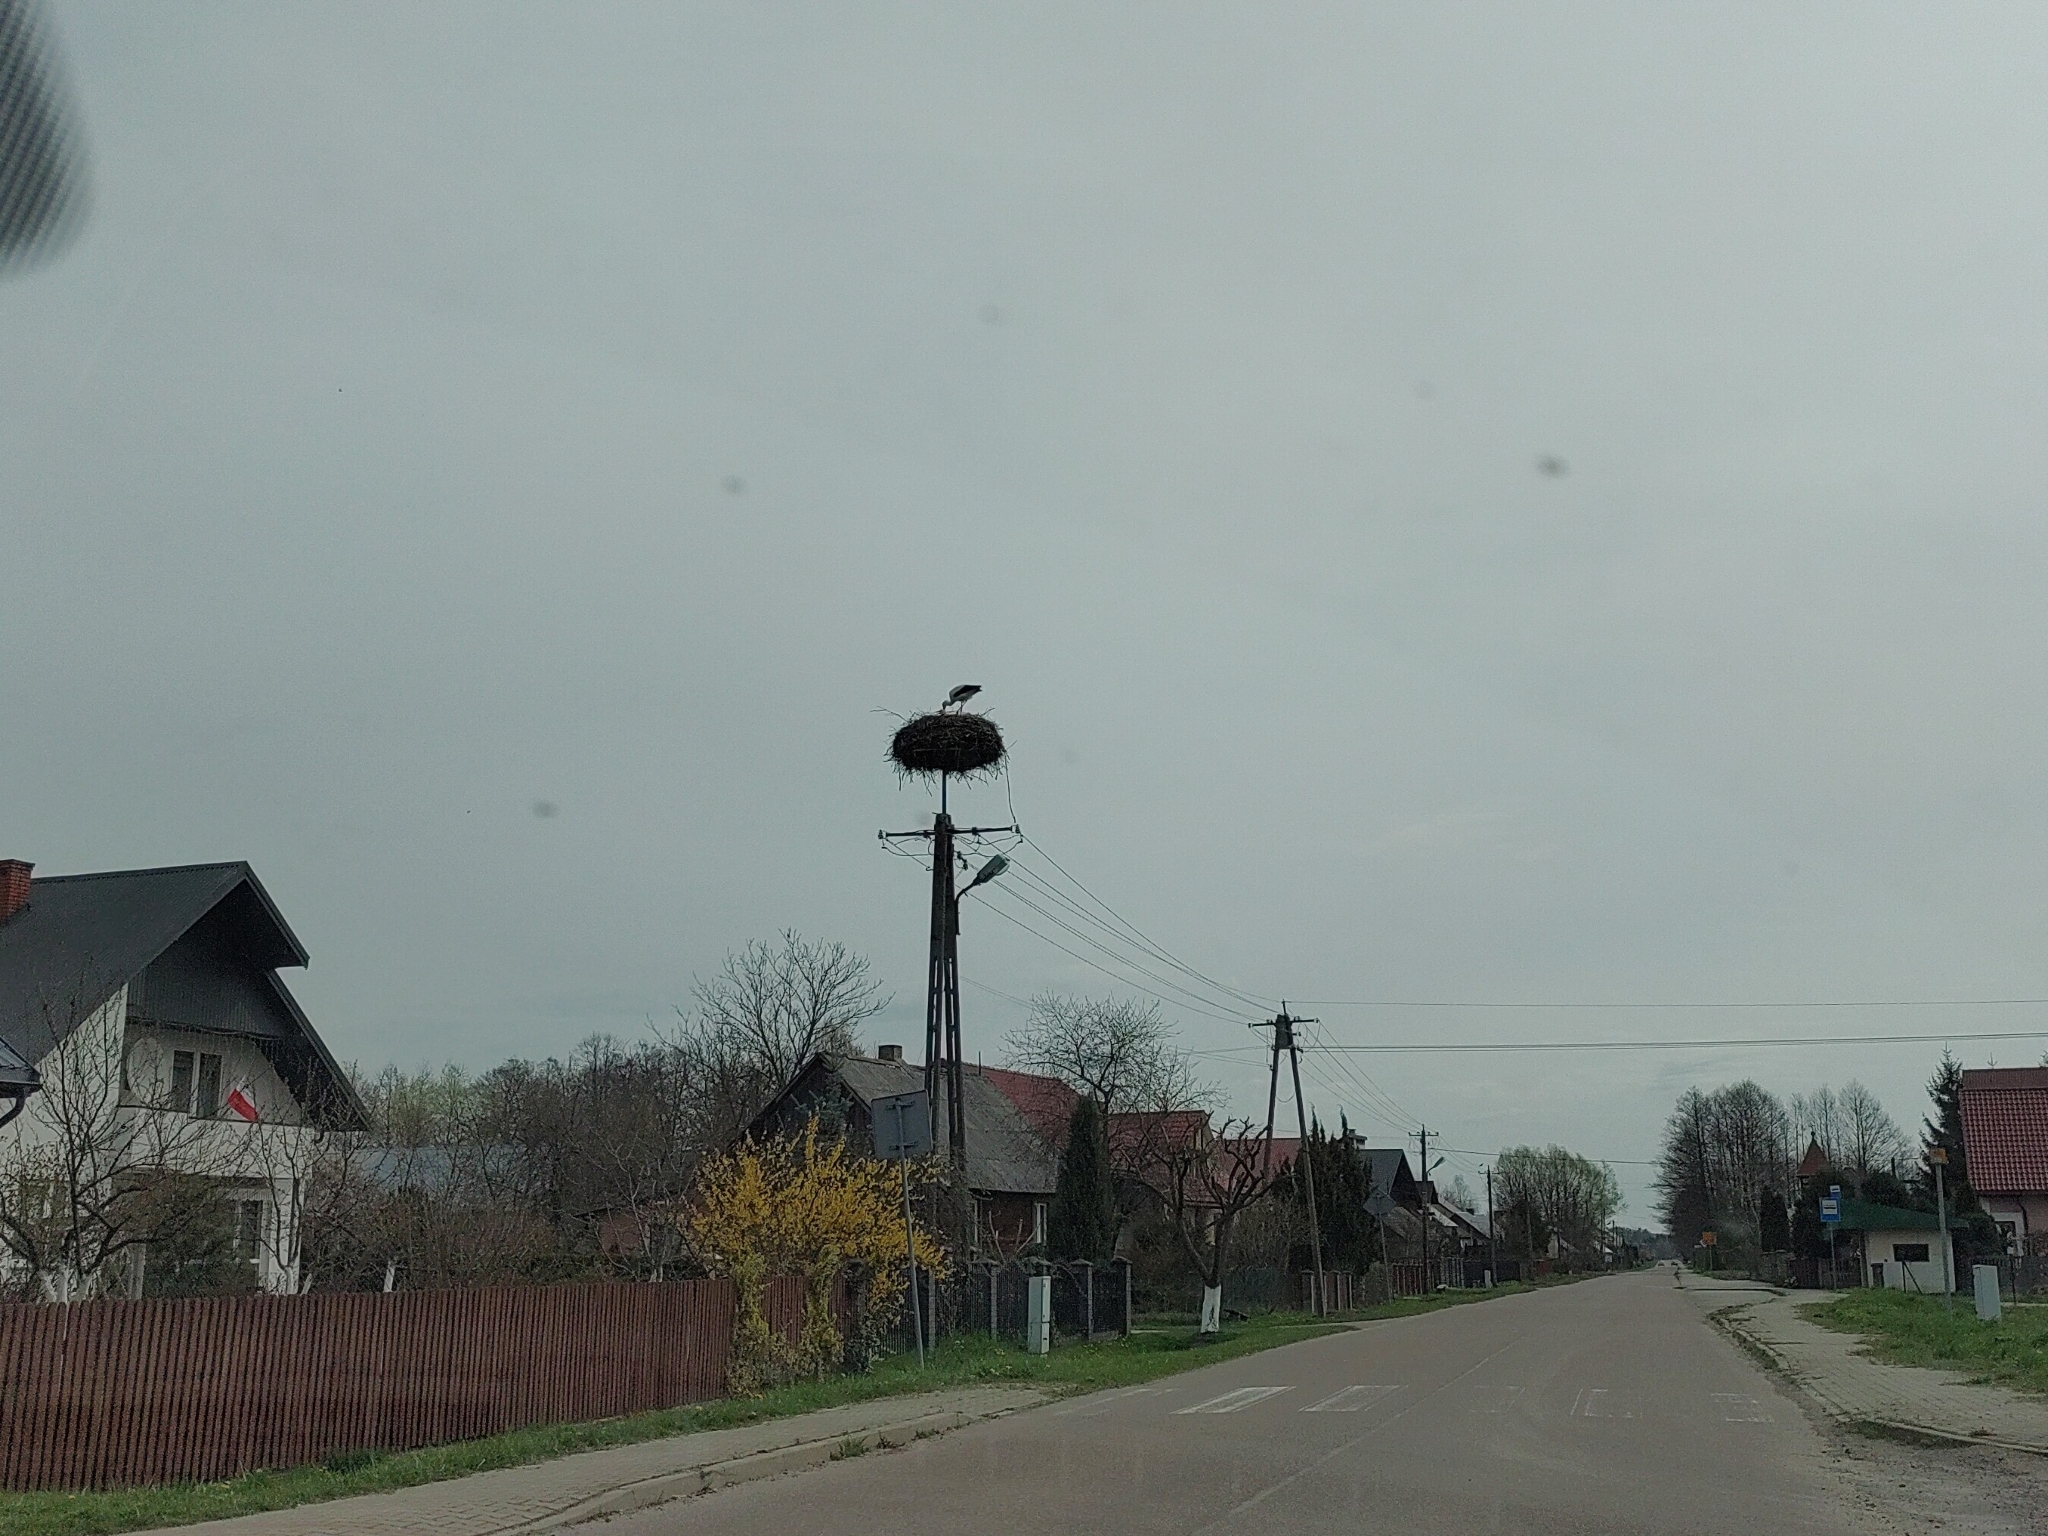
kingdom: Animalia
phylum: Chordata
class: Aves
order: Ciconiiformes
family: Ciconiidae
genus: Ciconia
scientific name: Ciconia ciconia
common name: White stork
